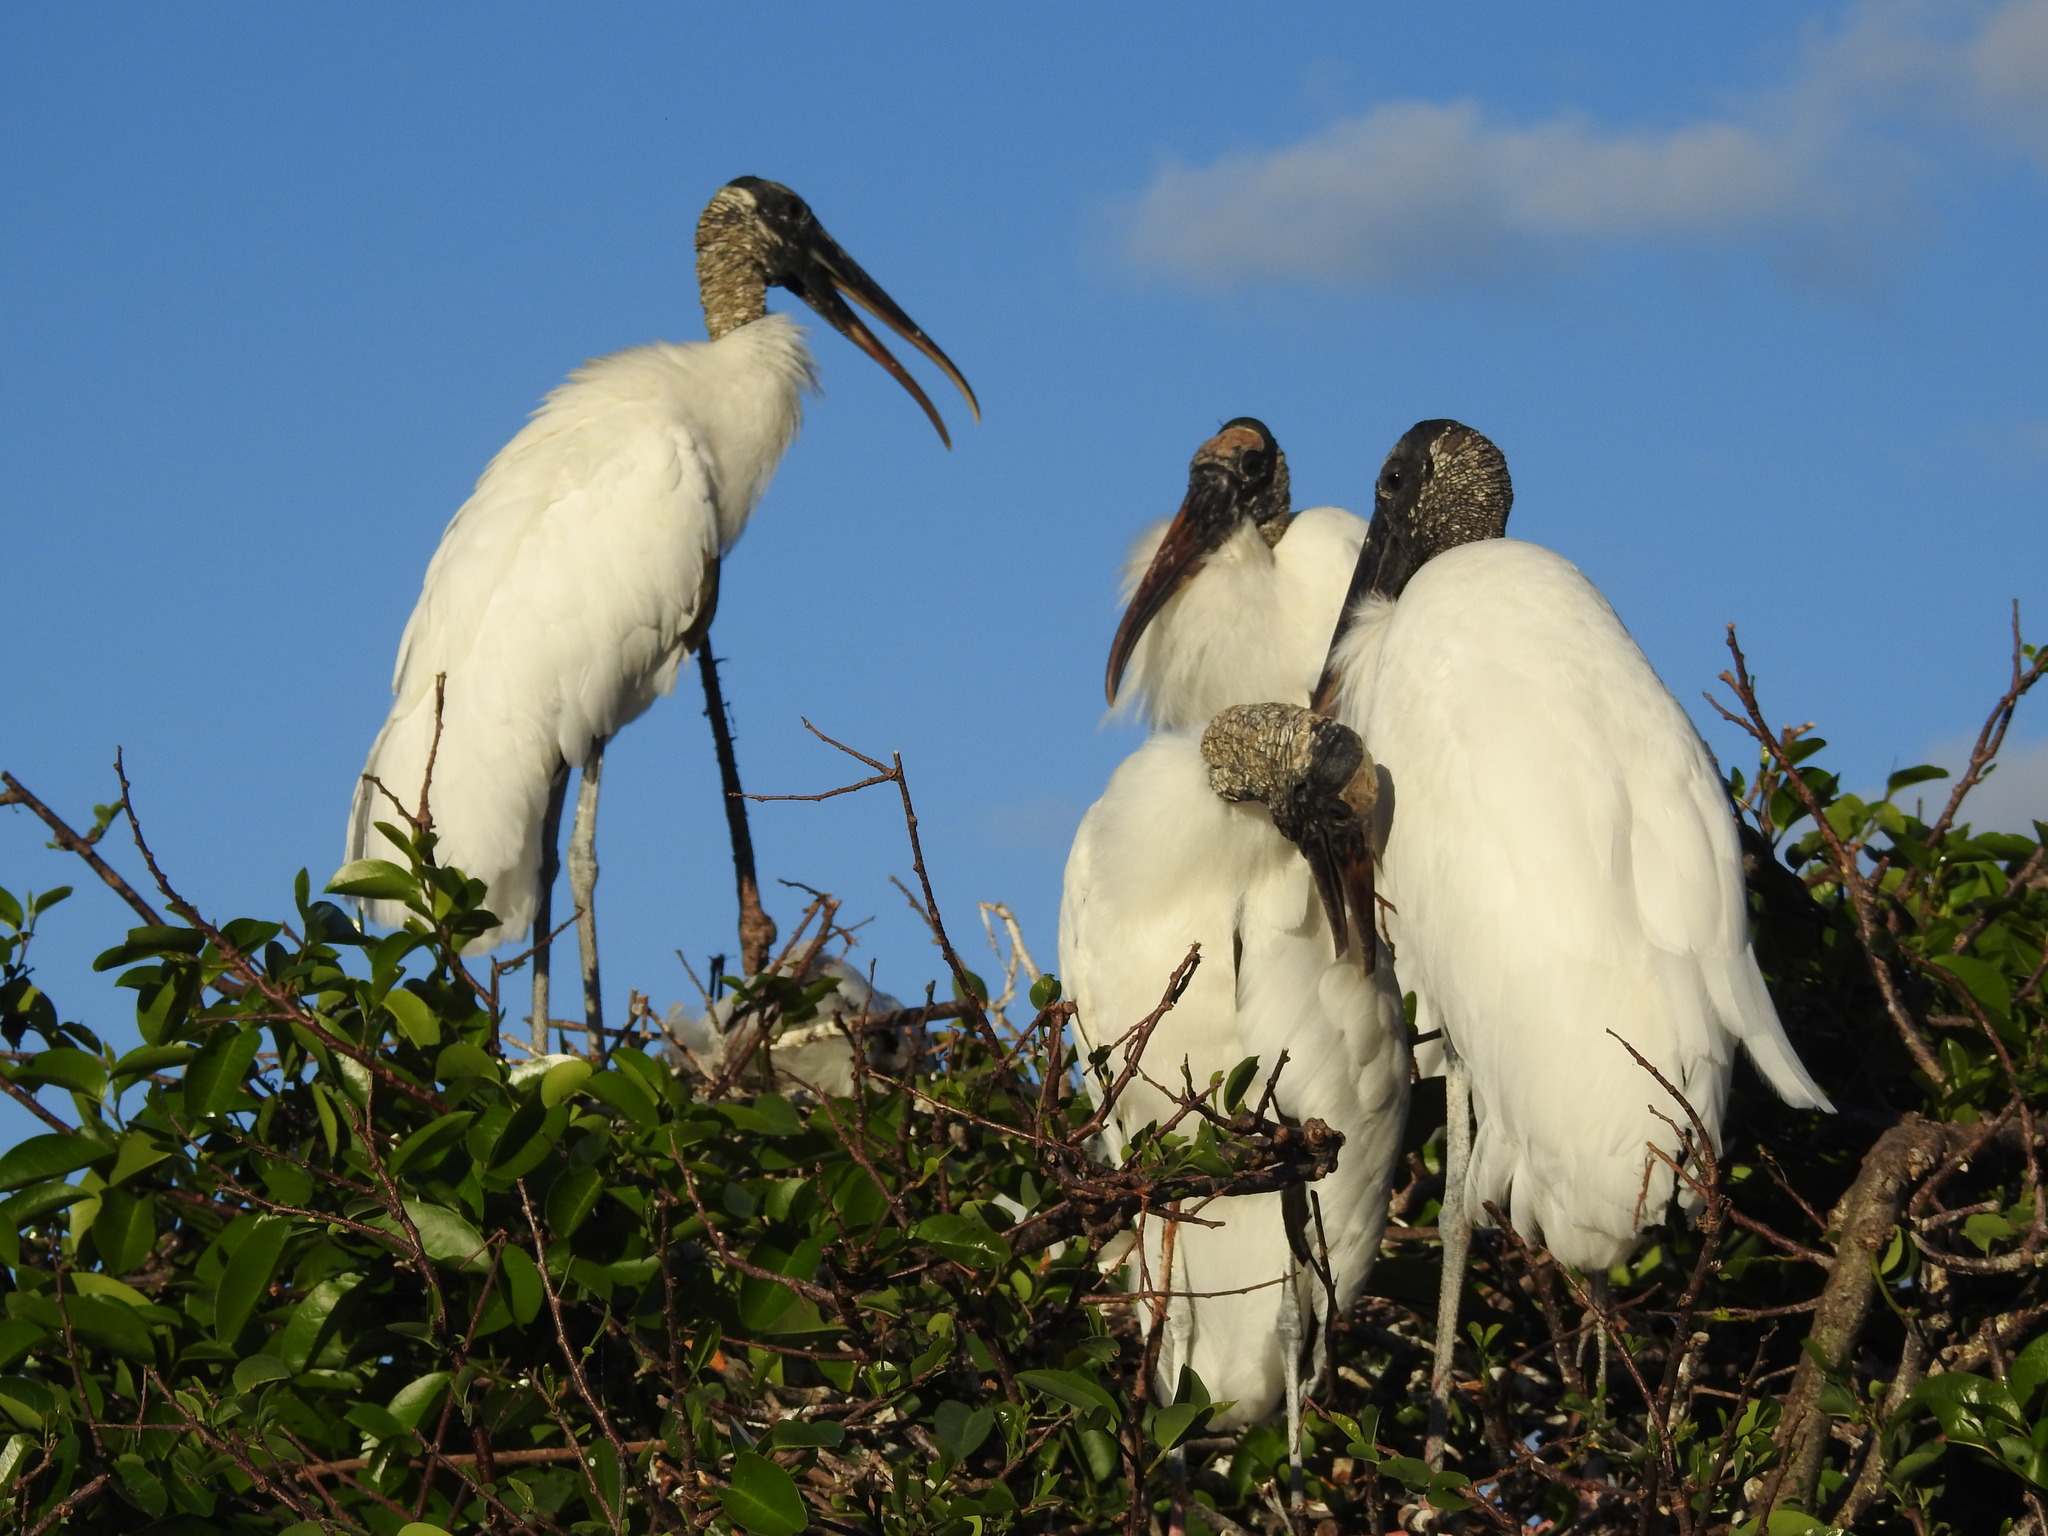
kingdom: Animalia
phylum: Chordata
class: Aves
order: Ciconiiformes
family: Ciconiidae
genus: Mycteria
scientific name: Mycteria americana
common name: Wood stork
